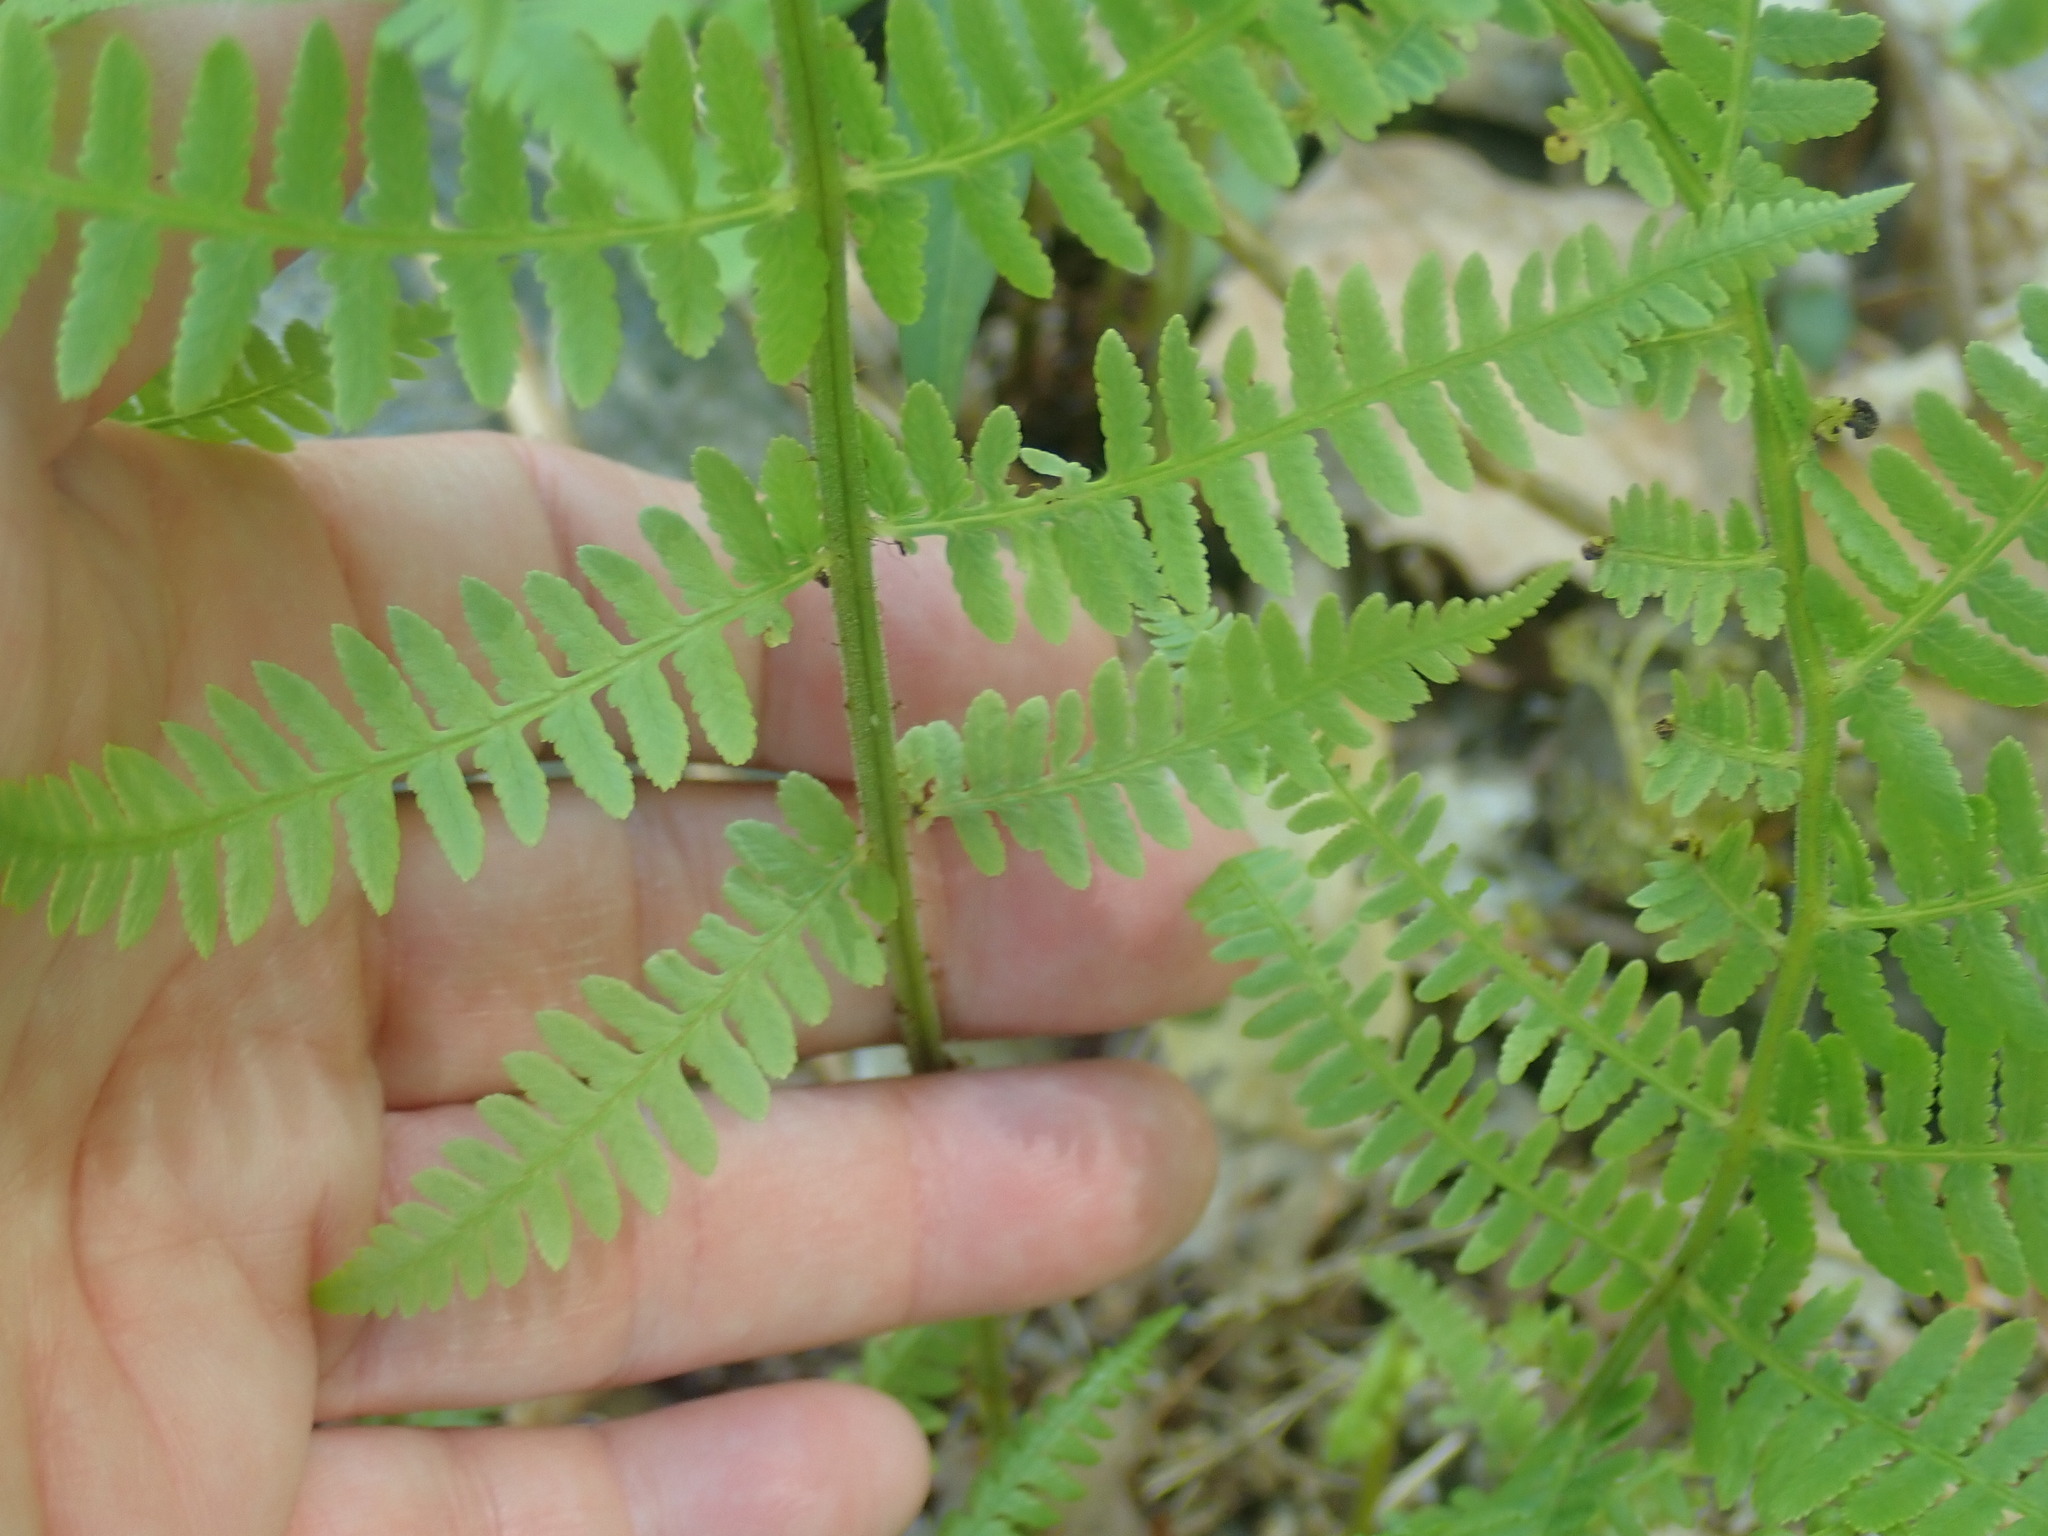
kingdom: Plantae
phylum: Tracheophyta
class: Polypodiopsida
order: Polypodiales
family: Athyriaceae
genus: Athyrium
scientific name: Athyrium angustum
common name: Northern lady fern
